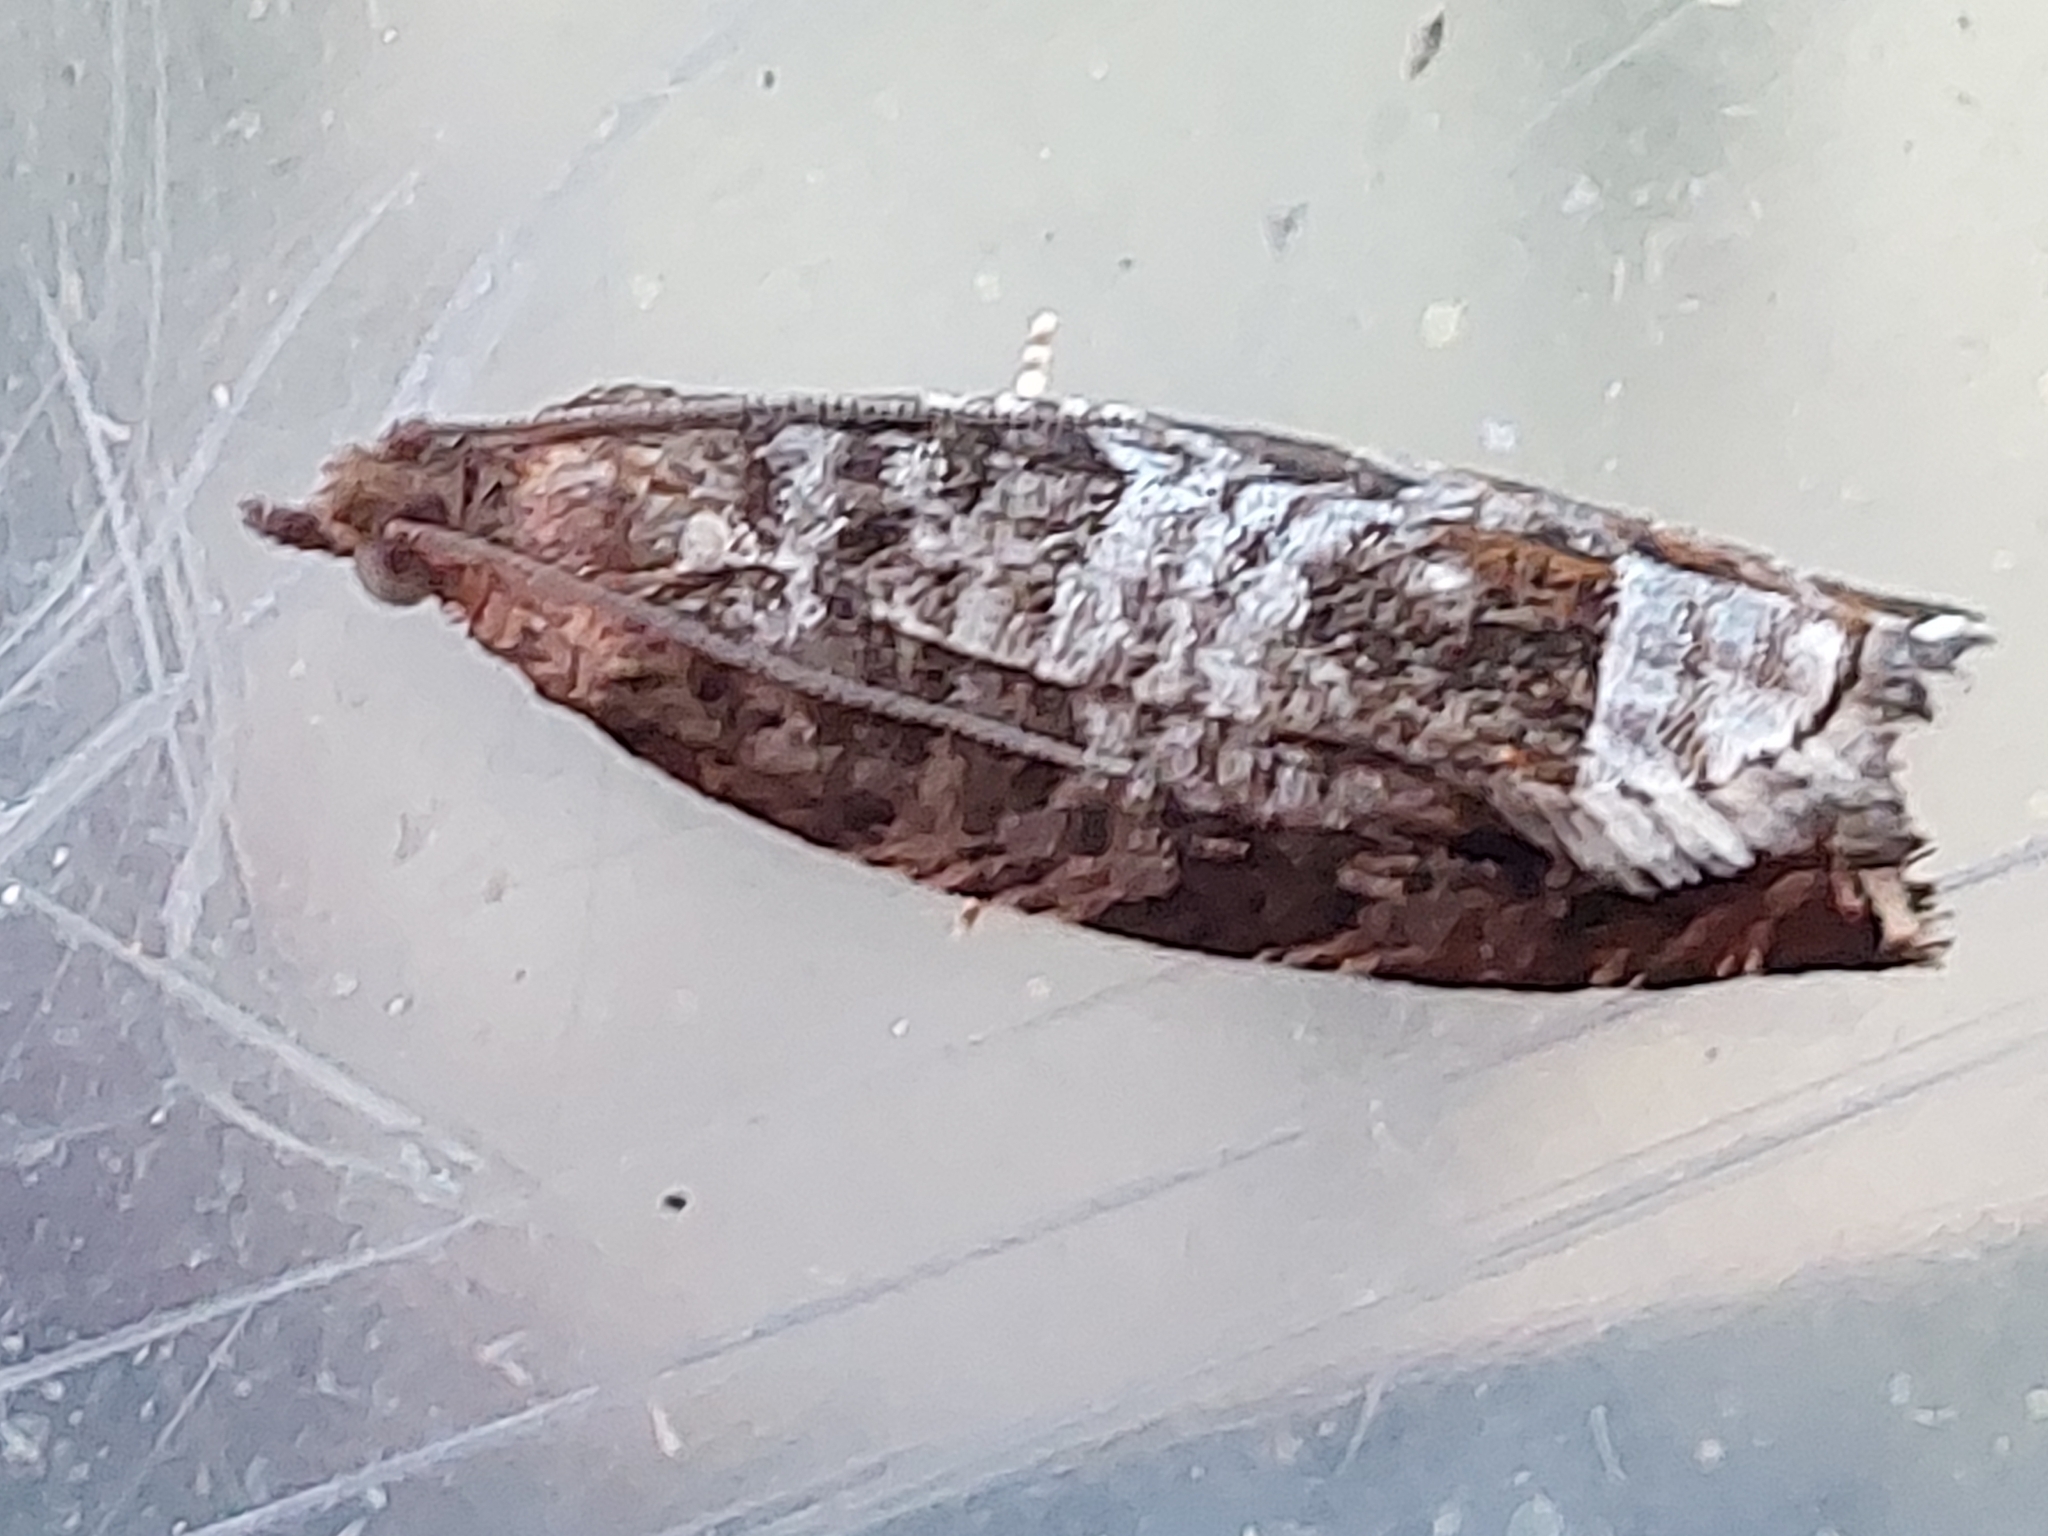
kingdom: Animalia
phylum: Arthropoda
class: Insecta
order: Lepidoptera
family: Tortricidae
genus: Ancylis
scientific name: Ancylis achatana
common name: Triangle-marked roller
